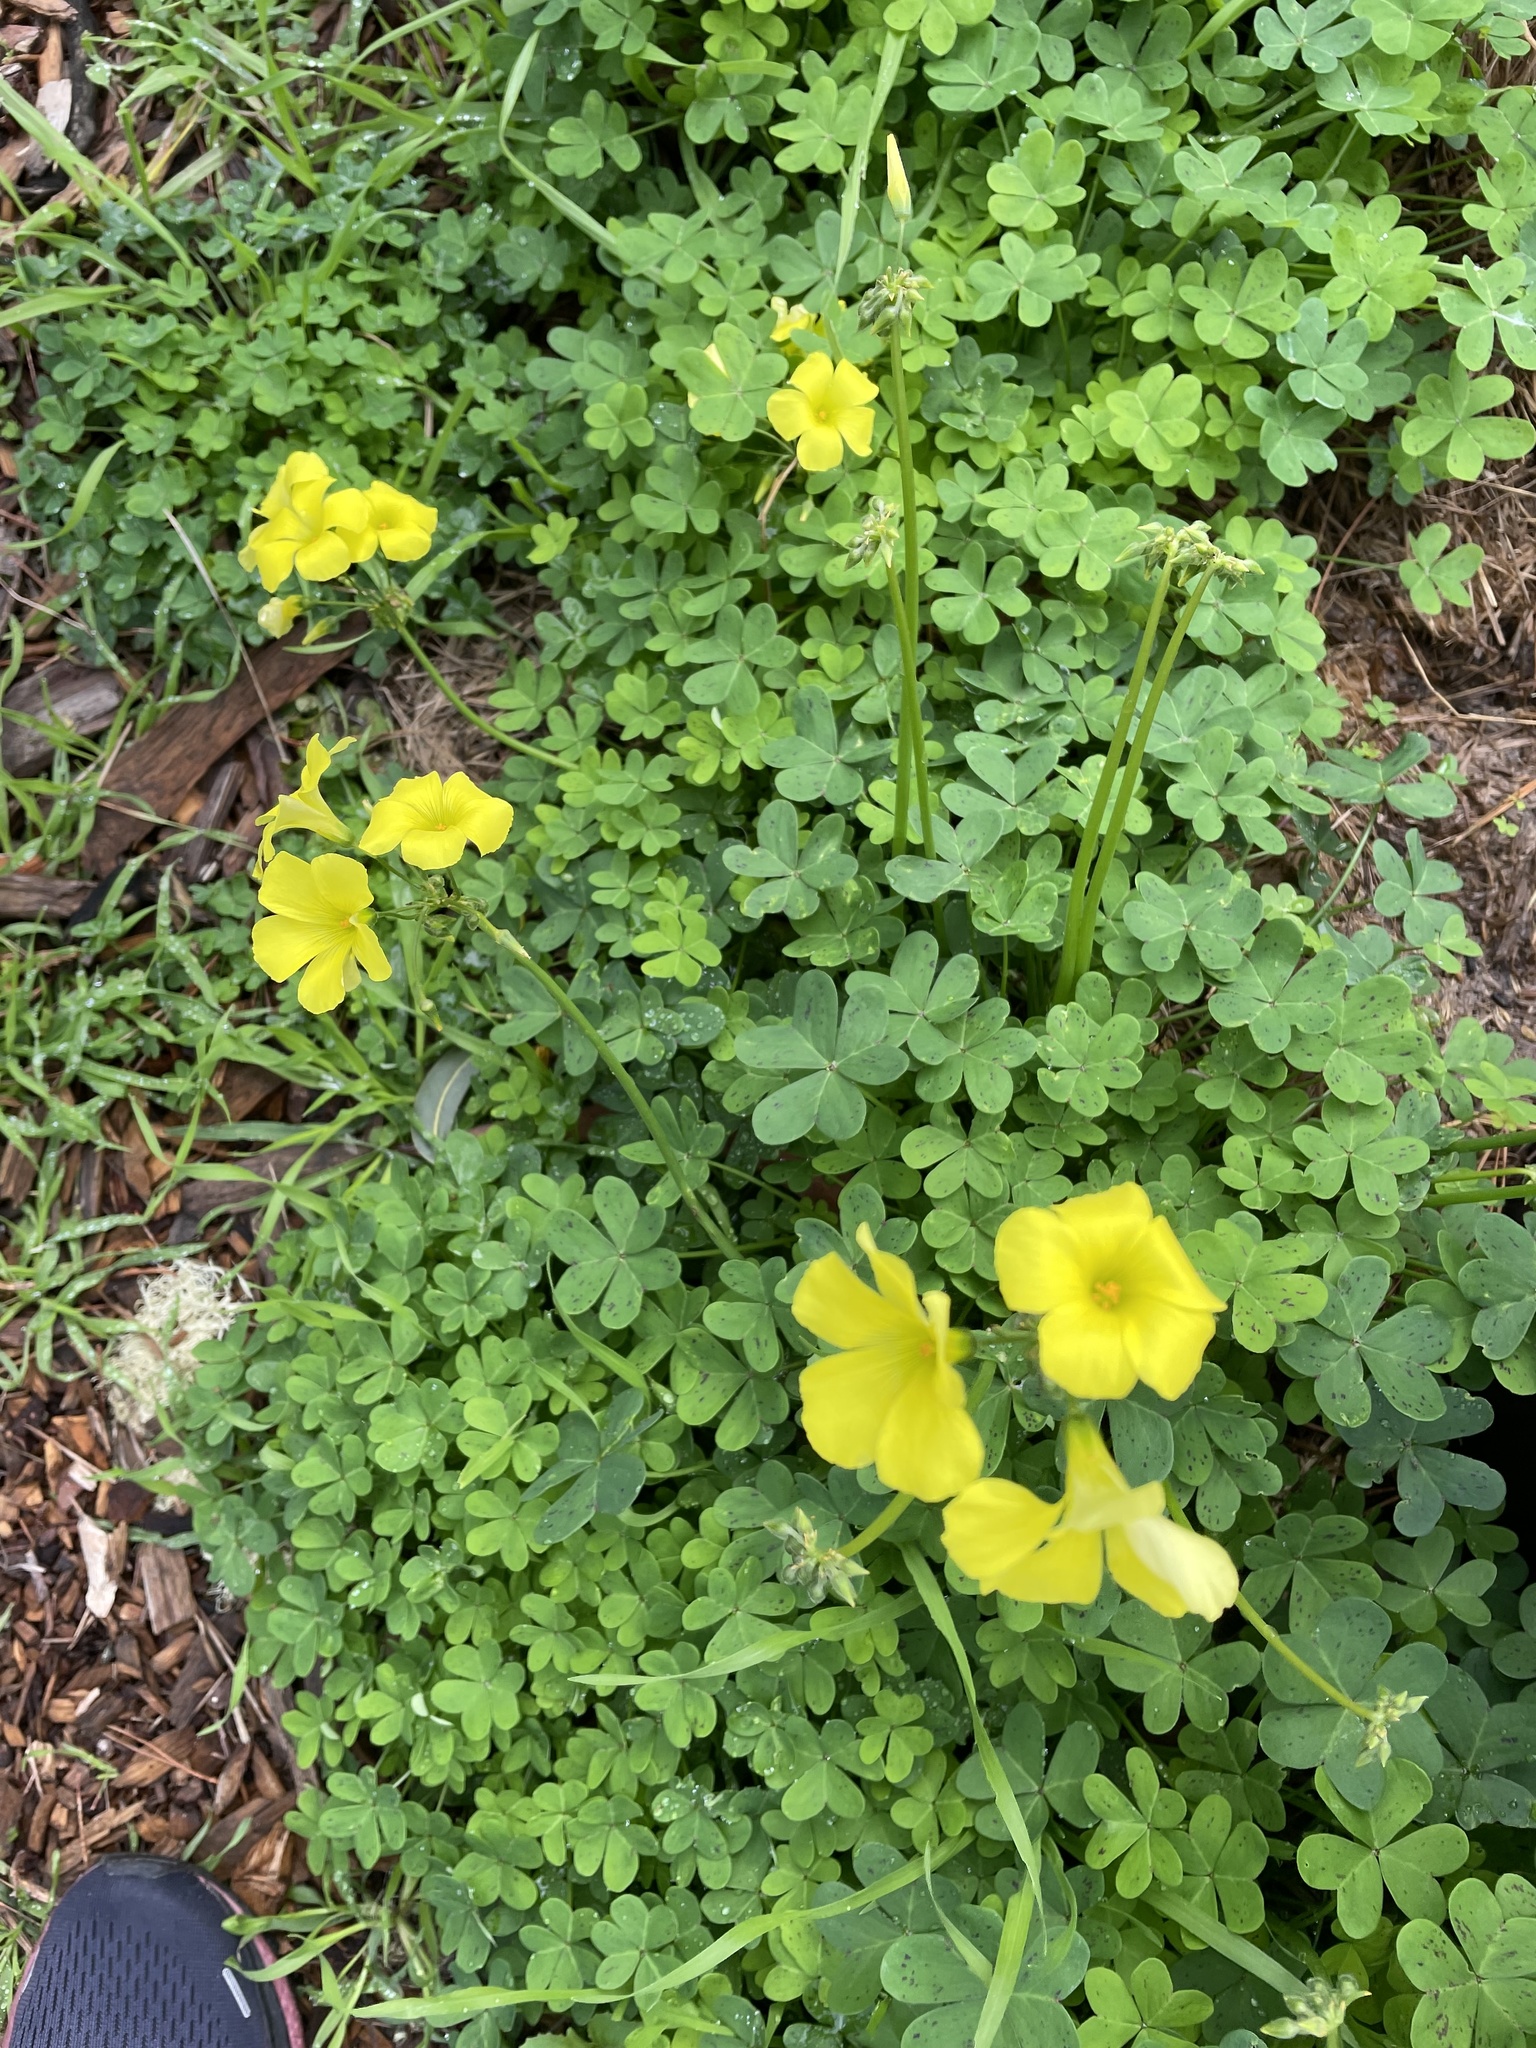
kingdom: Plantae
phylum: Tracheophyta
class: Magnoliopsida
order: Oxalidales
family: Oxalidaceae
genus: Oxalis
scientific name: Oxalis pes-caprae
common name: Bermuda-buttercup
